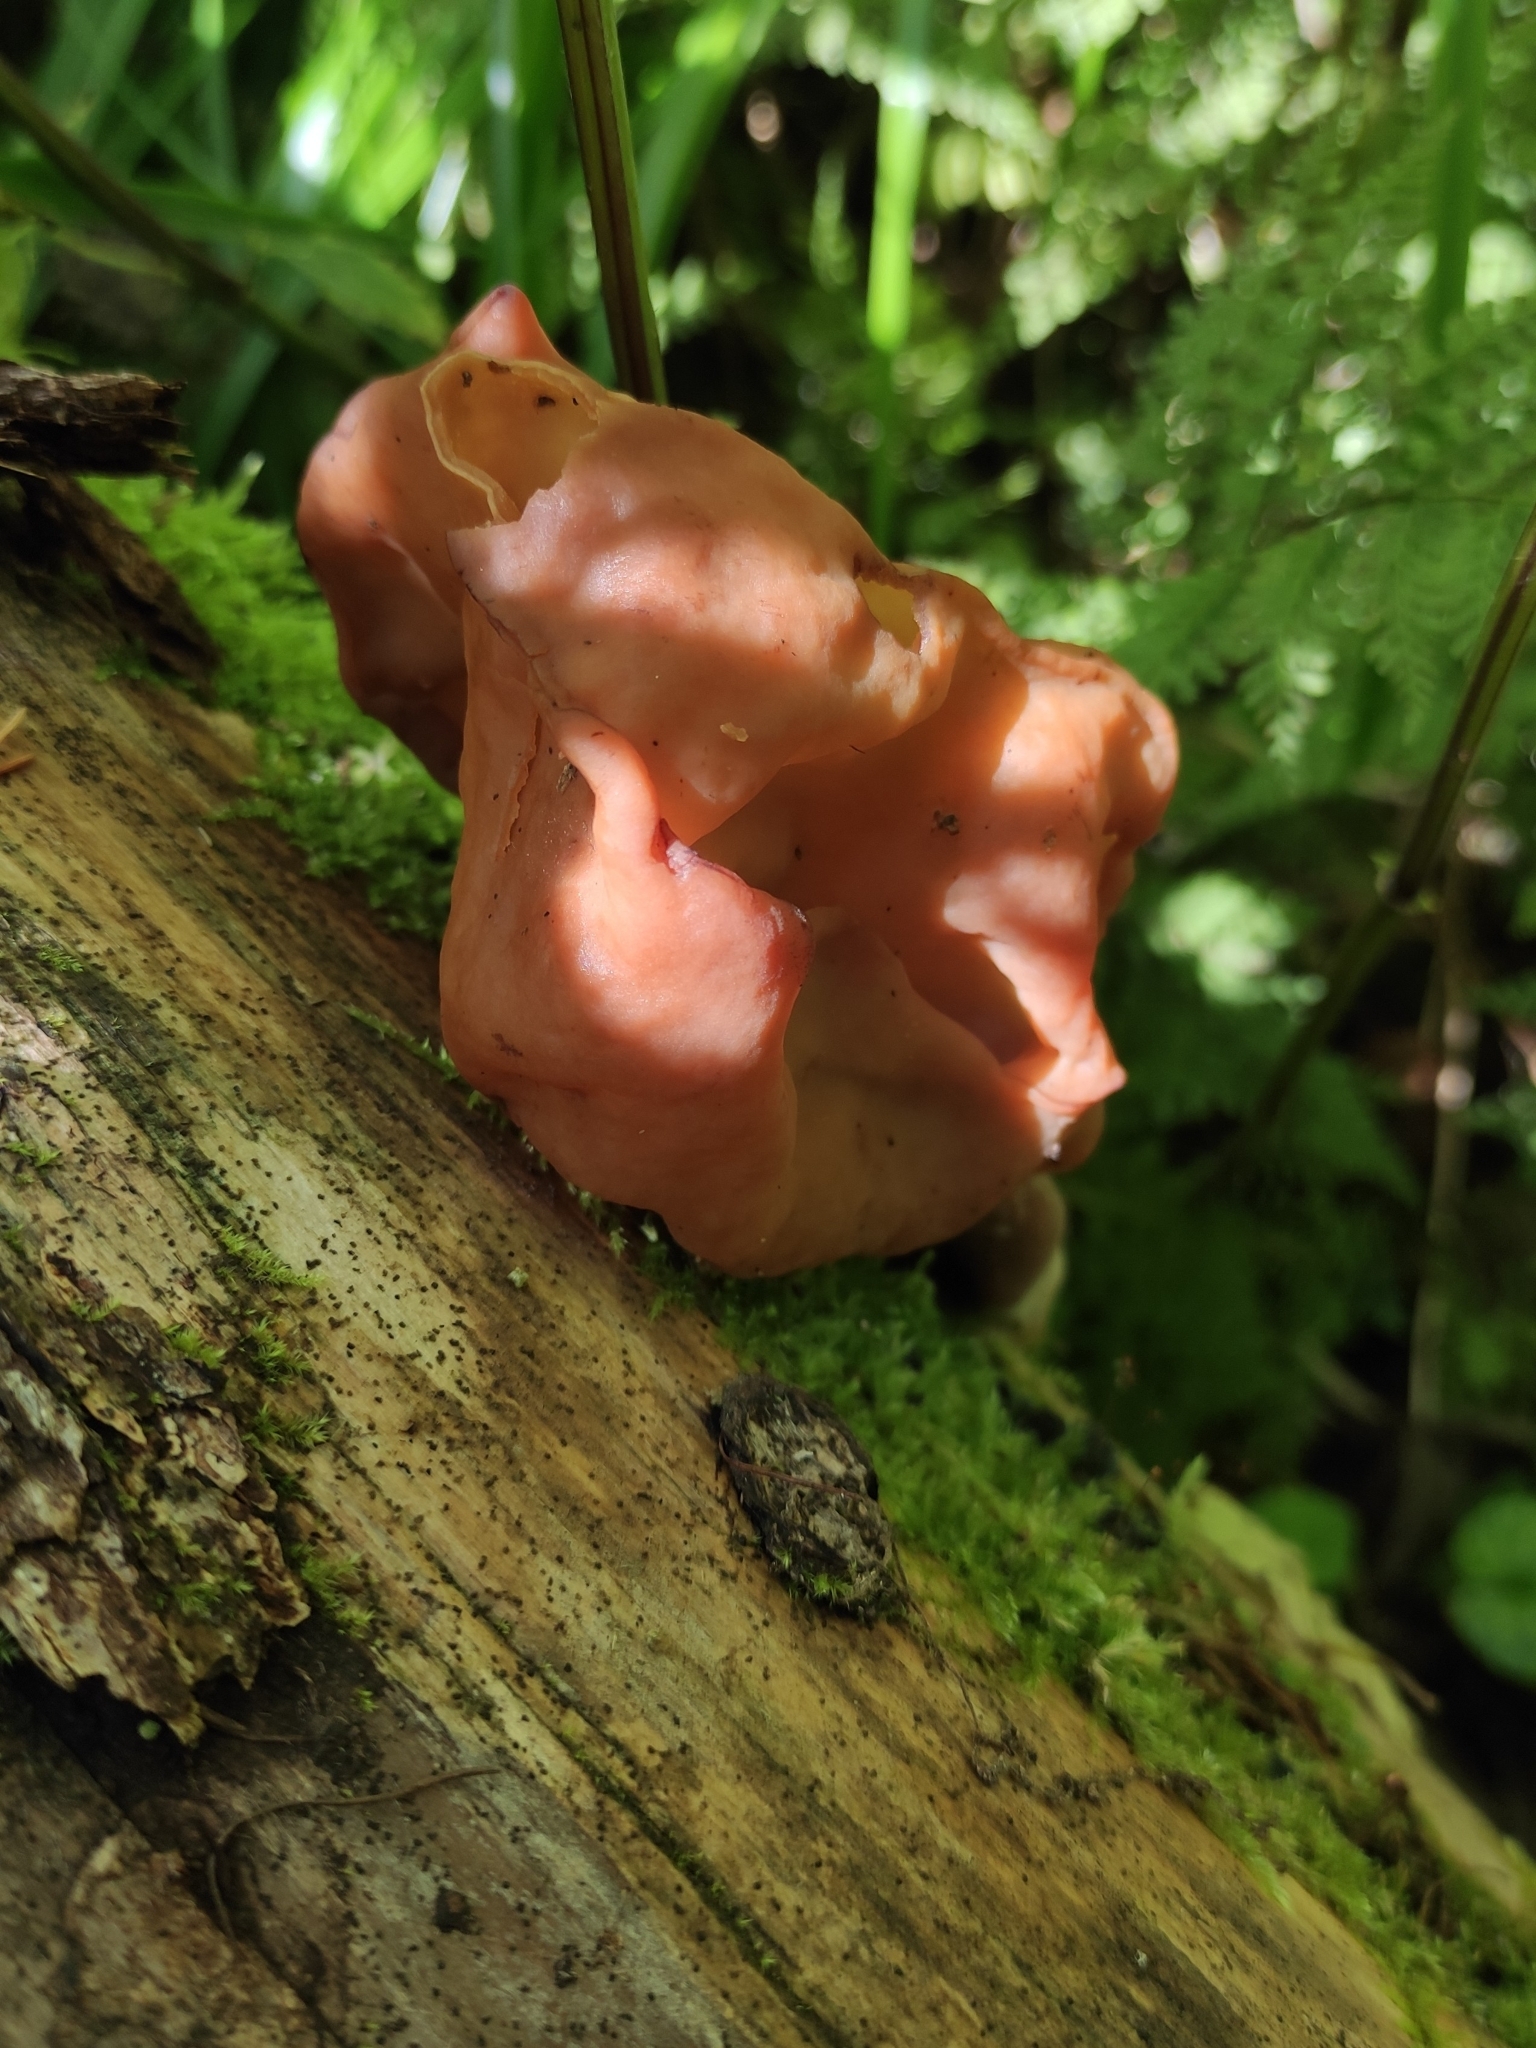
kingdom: Fungi
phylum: Ascomycota
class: Pezizomycetes
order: Pezizales
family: Discinaceae
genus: Gyromitra
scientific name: Gyromitra infula
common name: Pouched false morel
